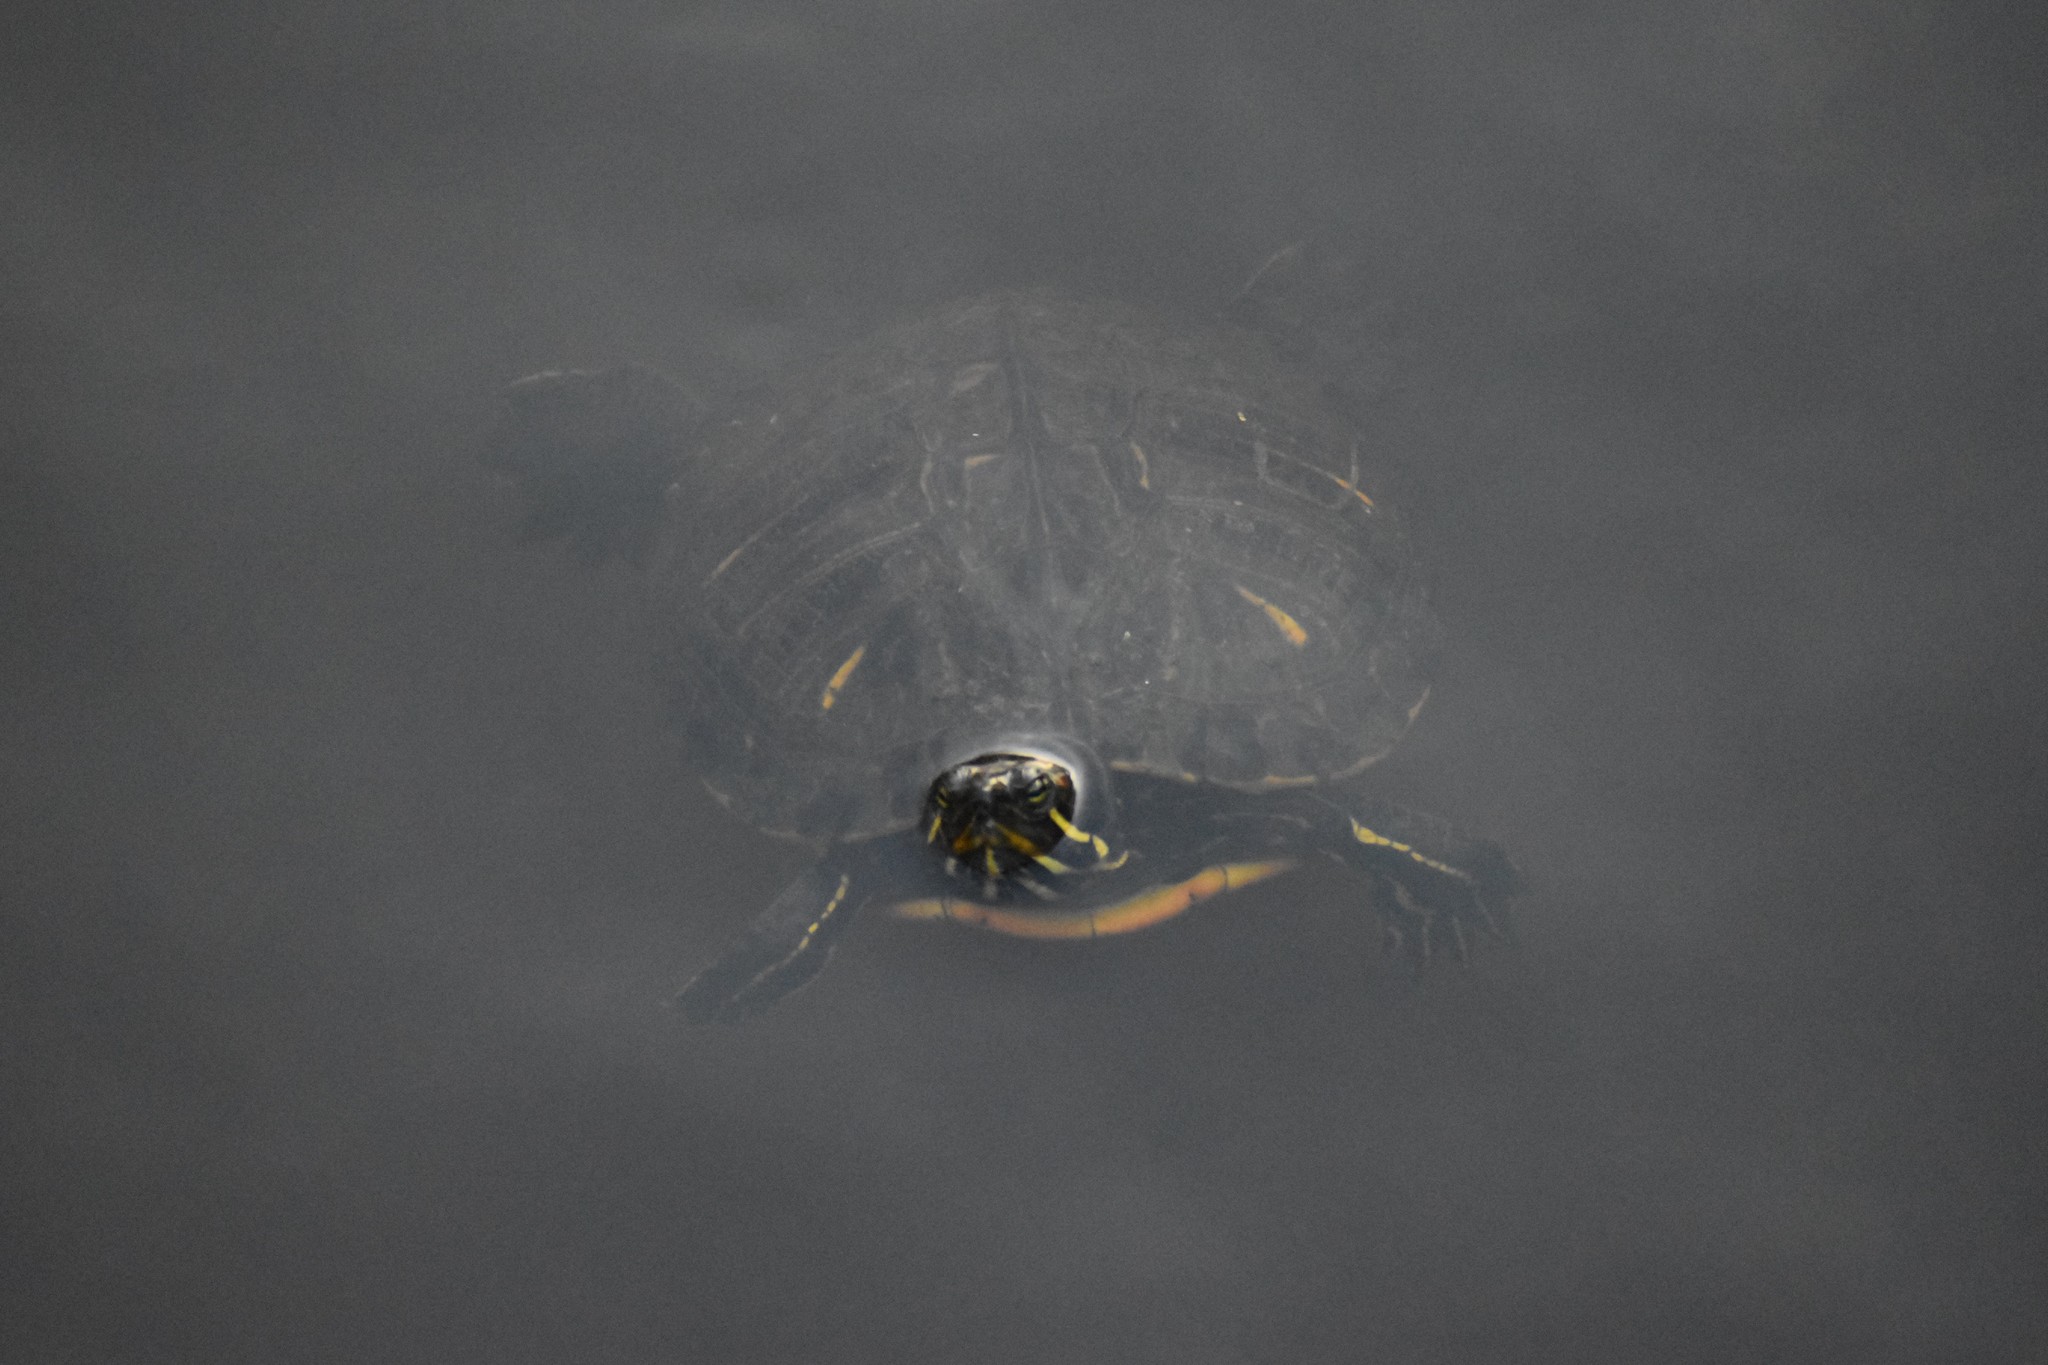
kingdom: Animalia
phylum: Chordata
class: Testudines
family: Emydidae
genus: Trachemys
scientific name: Trachemys scripta
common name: Slider
